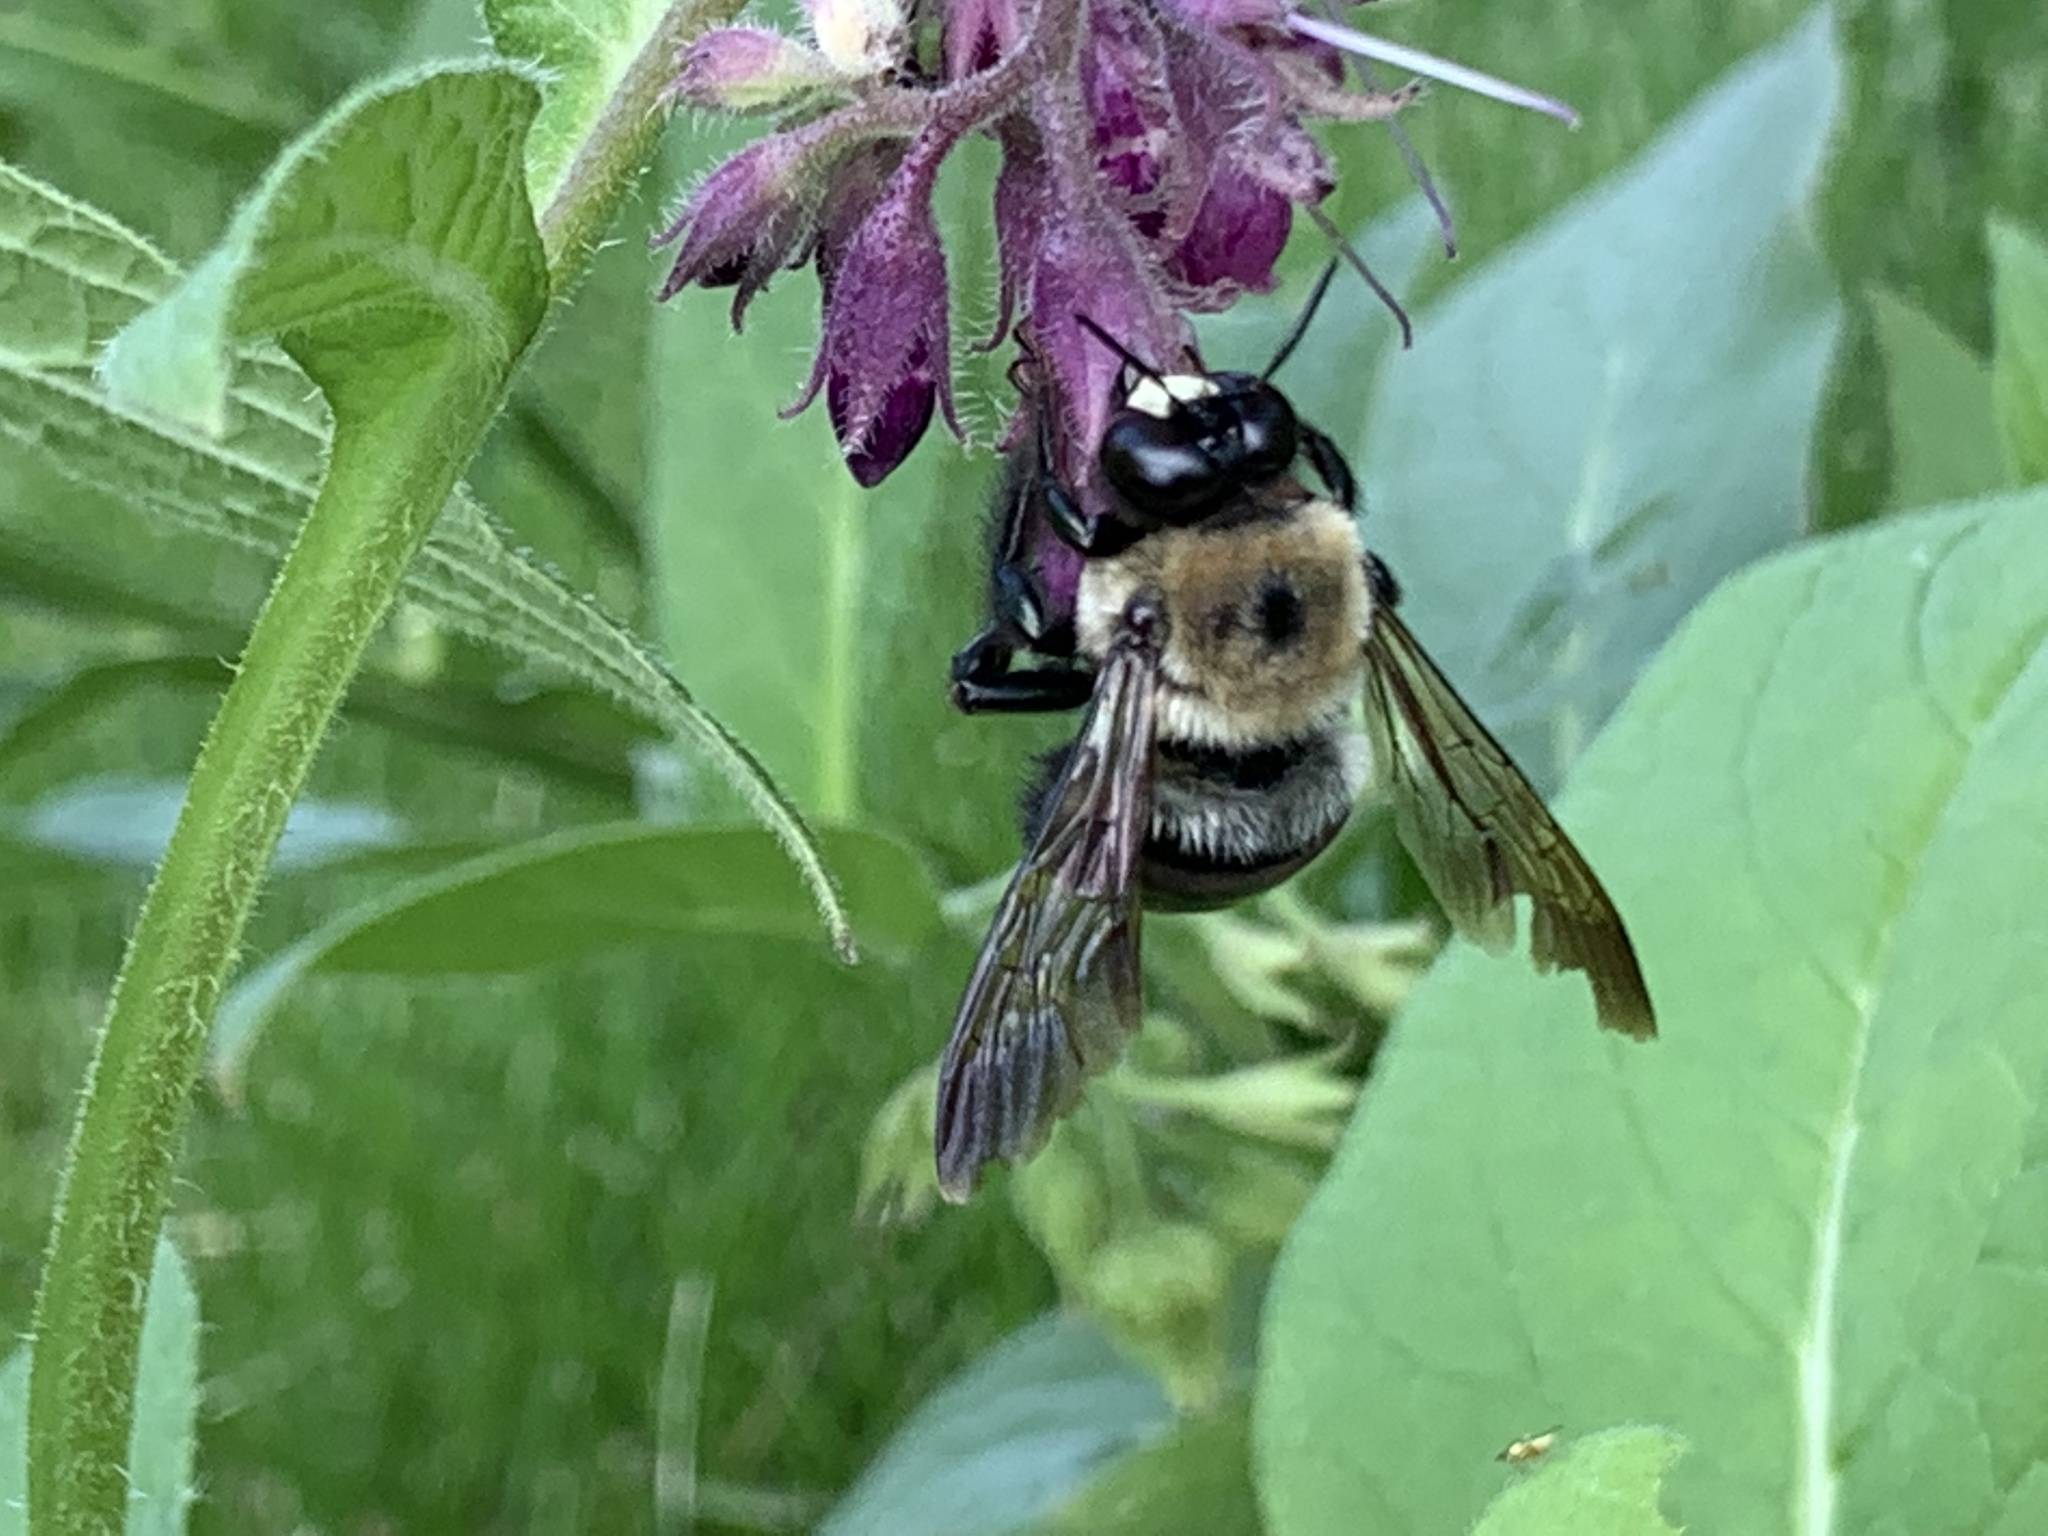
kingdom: Animalia
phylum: Arthropoda
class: Insecta
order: Hymenoptera
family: Apidae
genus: Xylocopa
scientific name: Xylocopa virginica
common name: Carpenter bee
